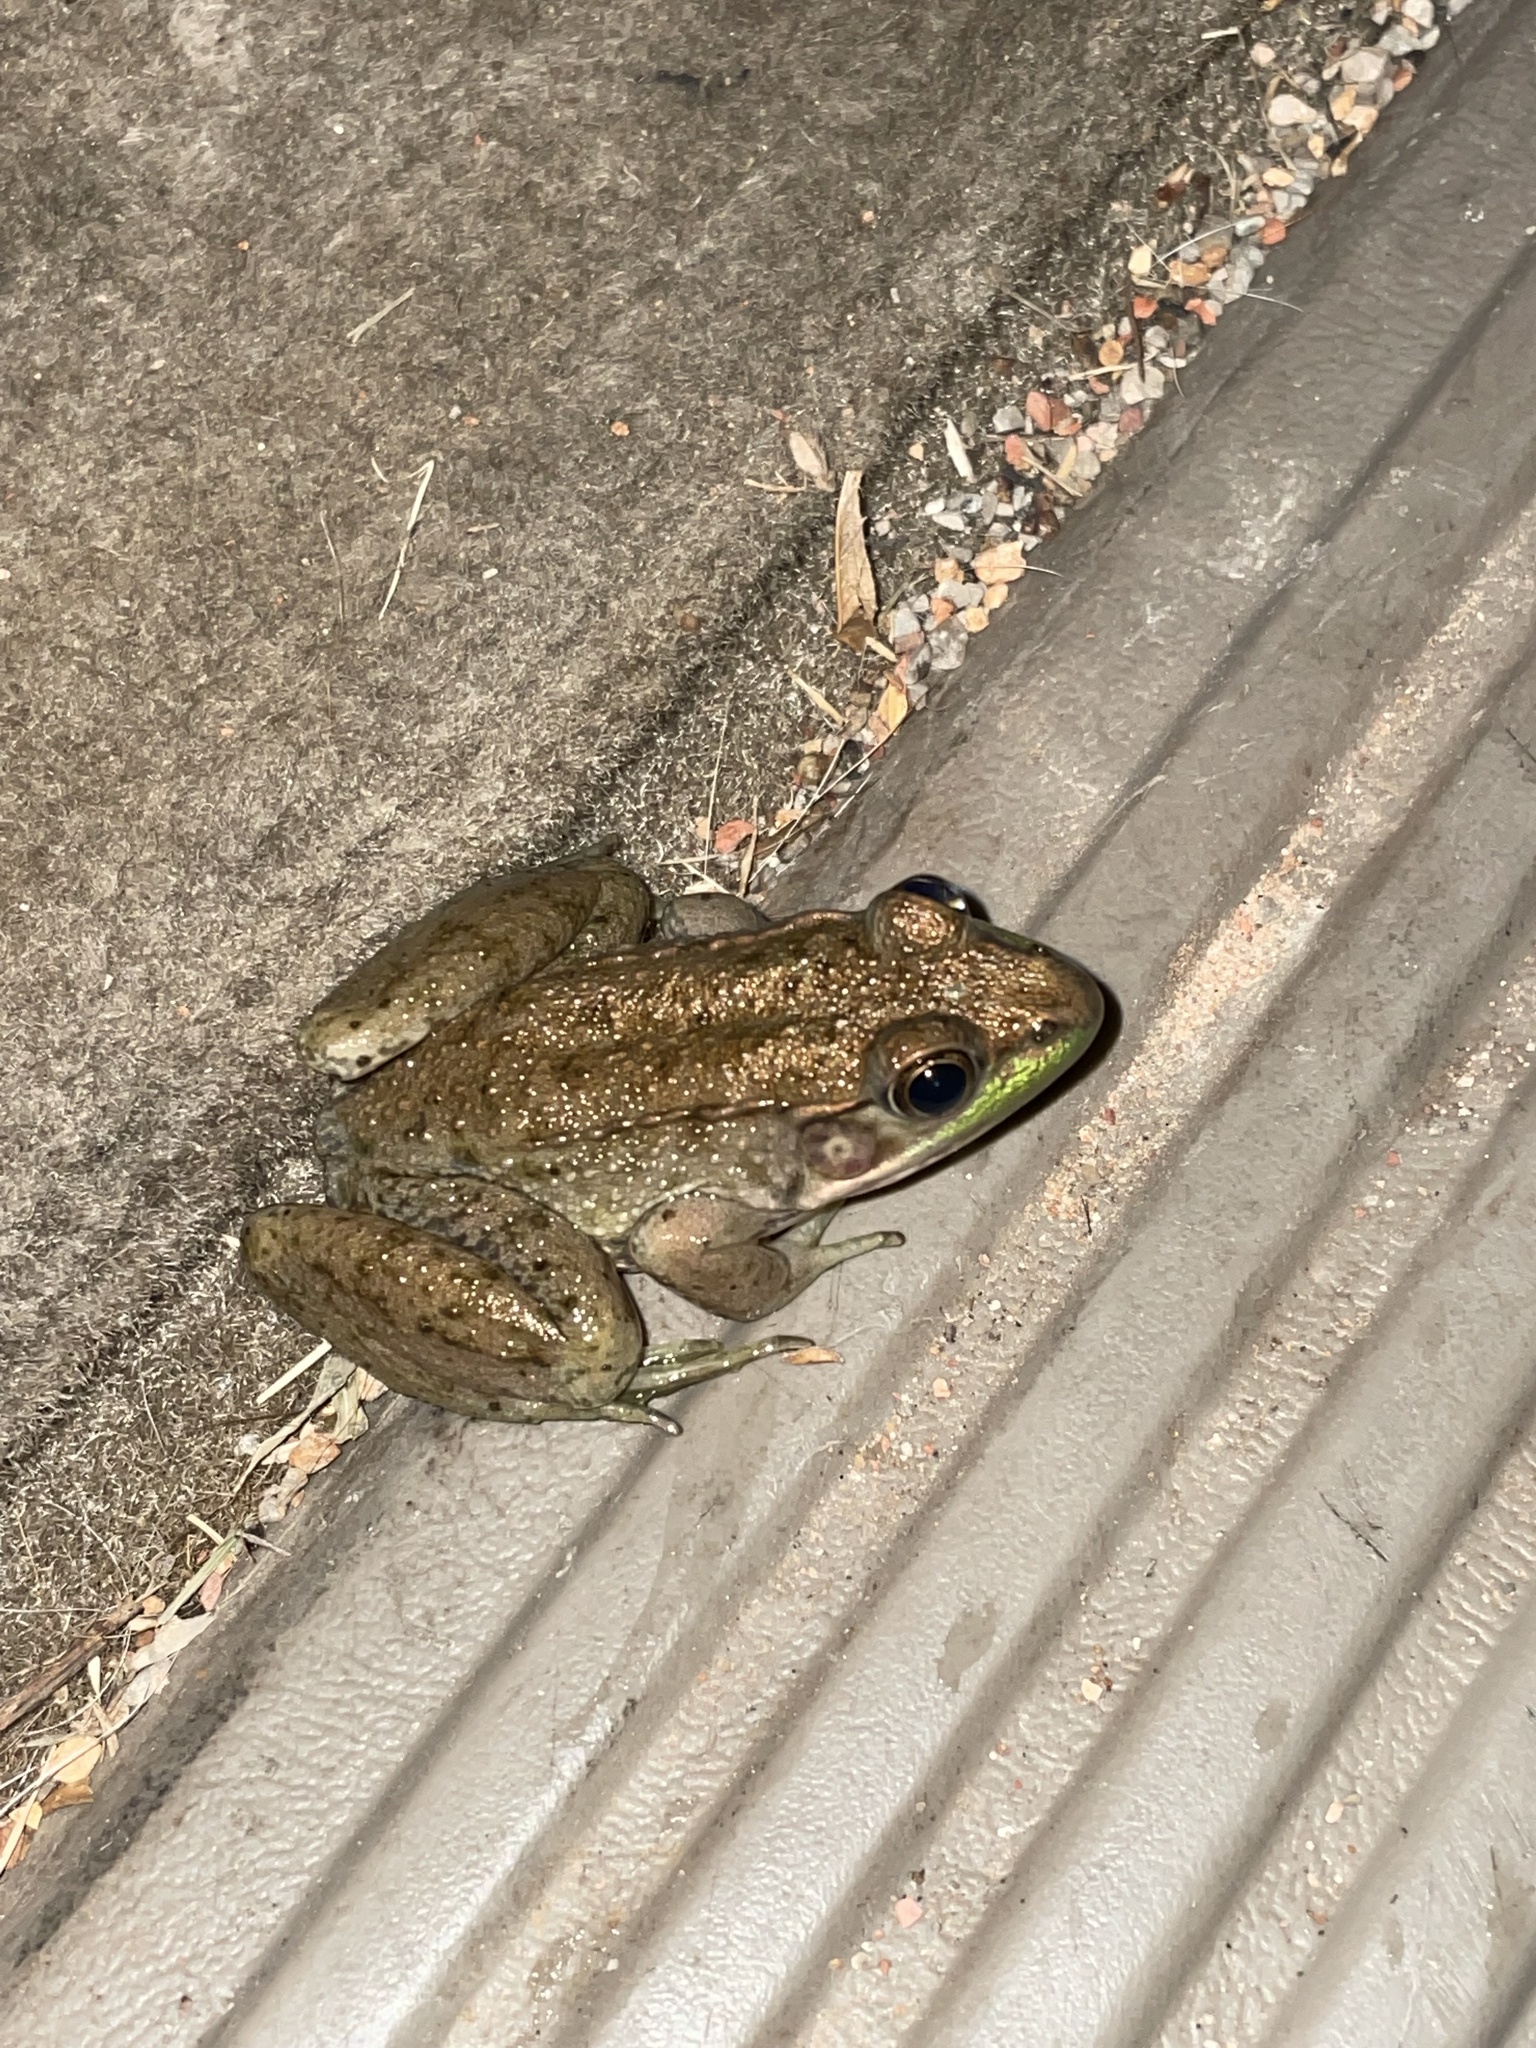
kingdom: Animalia
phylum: Chordata
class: Amphibia
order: Anura
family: Ranidae
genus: Lithobates
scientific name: Lithobates clamitans
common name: Green frog
